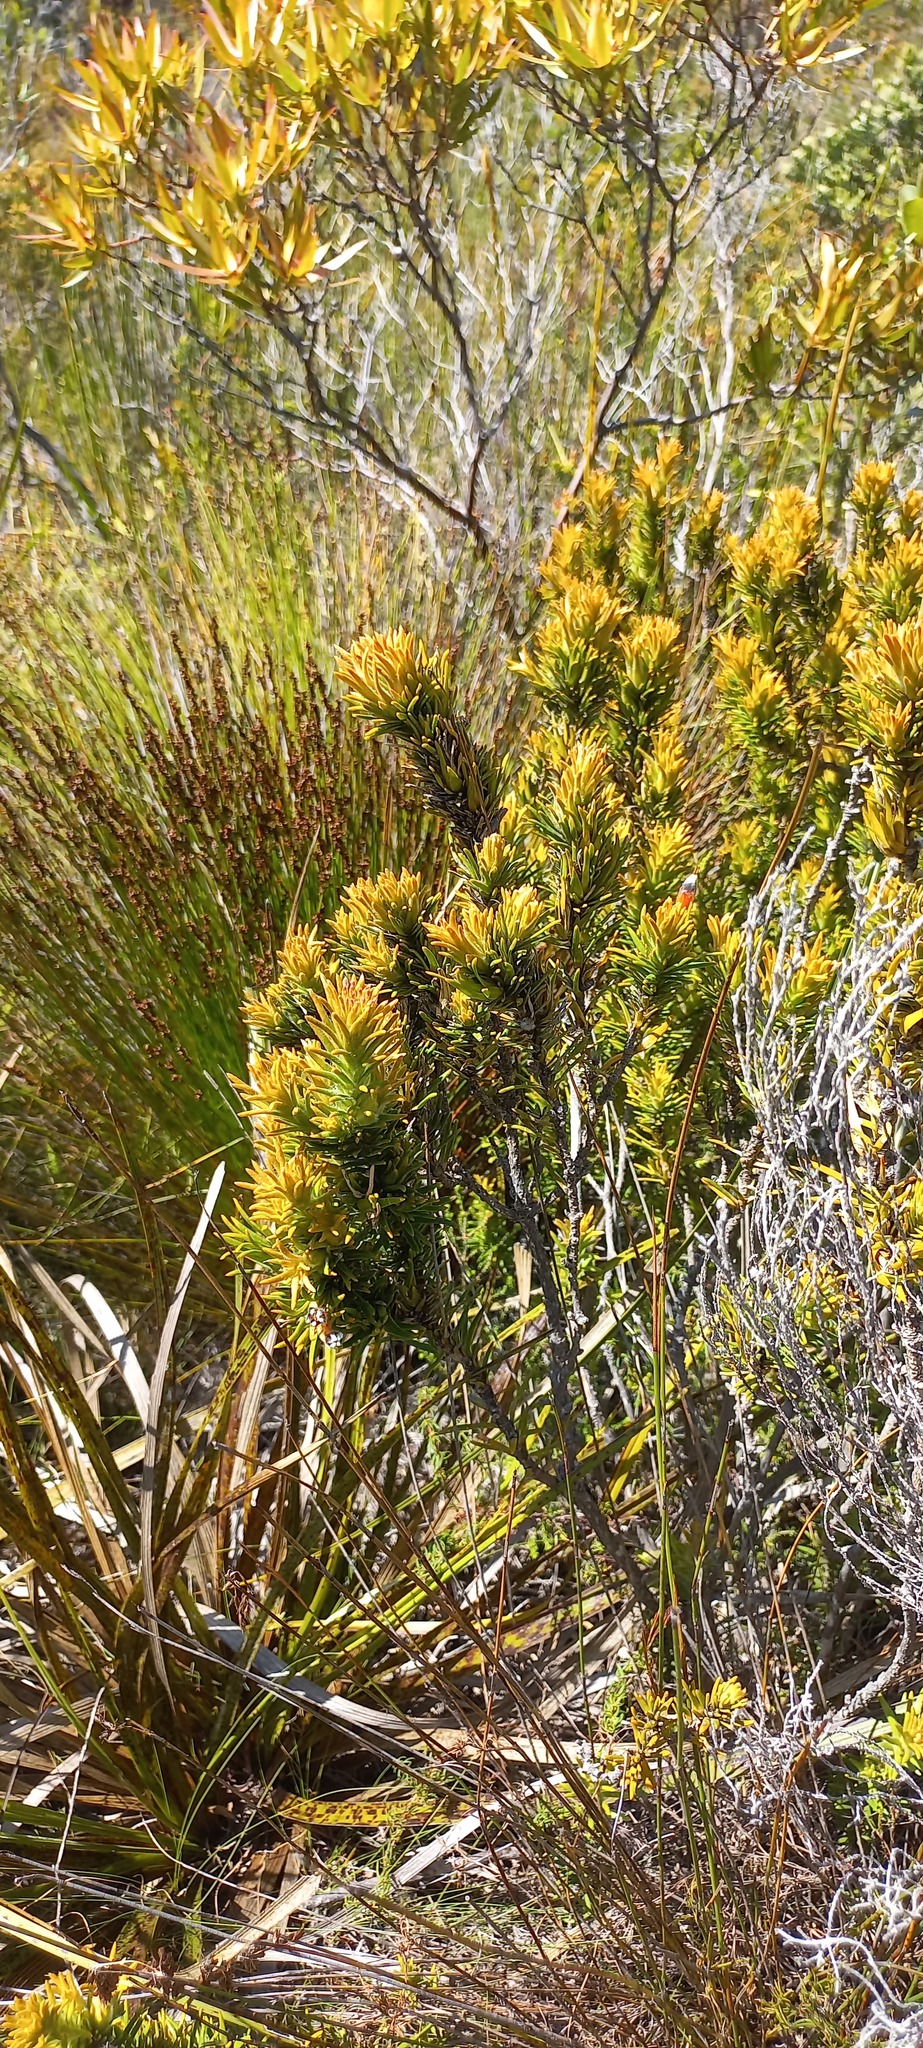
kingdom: Plantae
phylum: Tracheophyta
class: Magnoliopsida
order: Lamiales
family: Stilbaceae
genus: Retzia
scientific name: Retzia capensis
